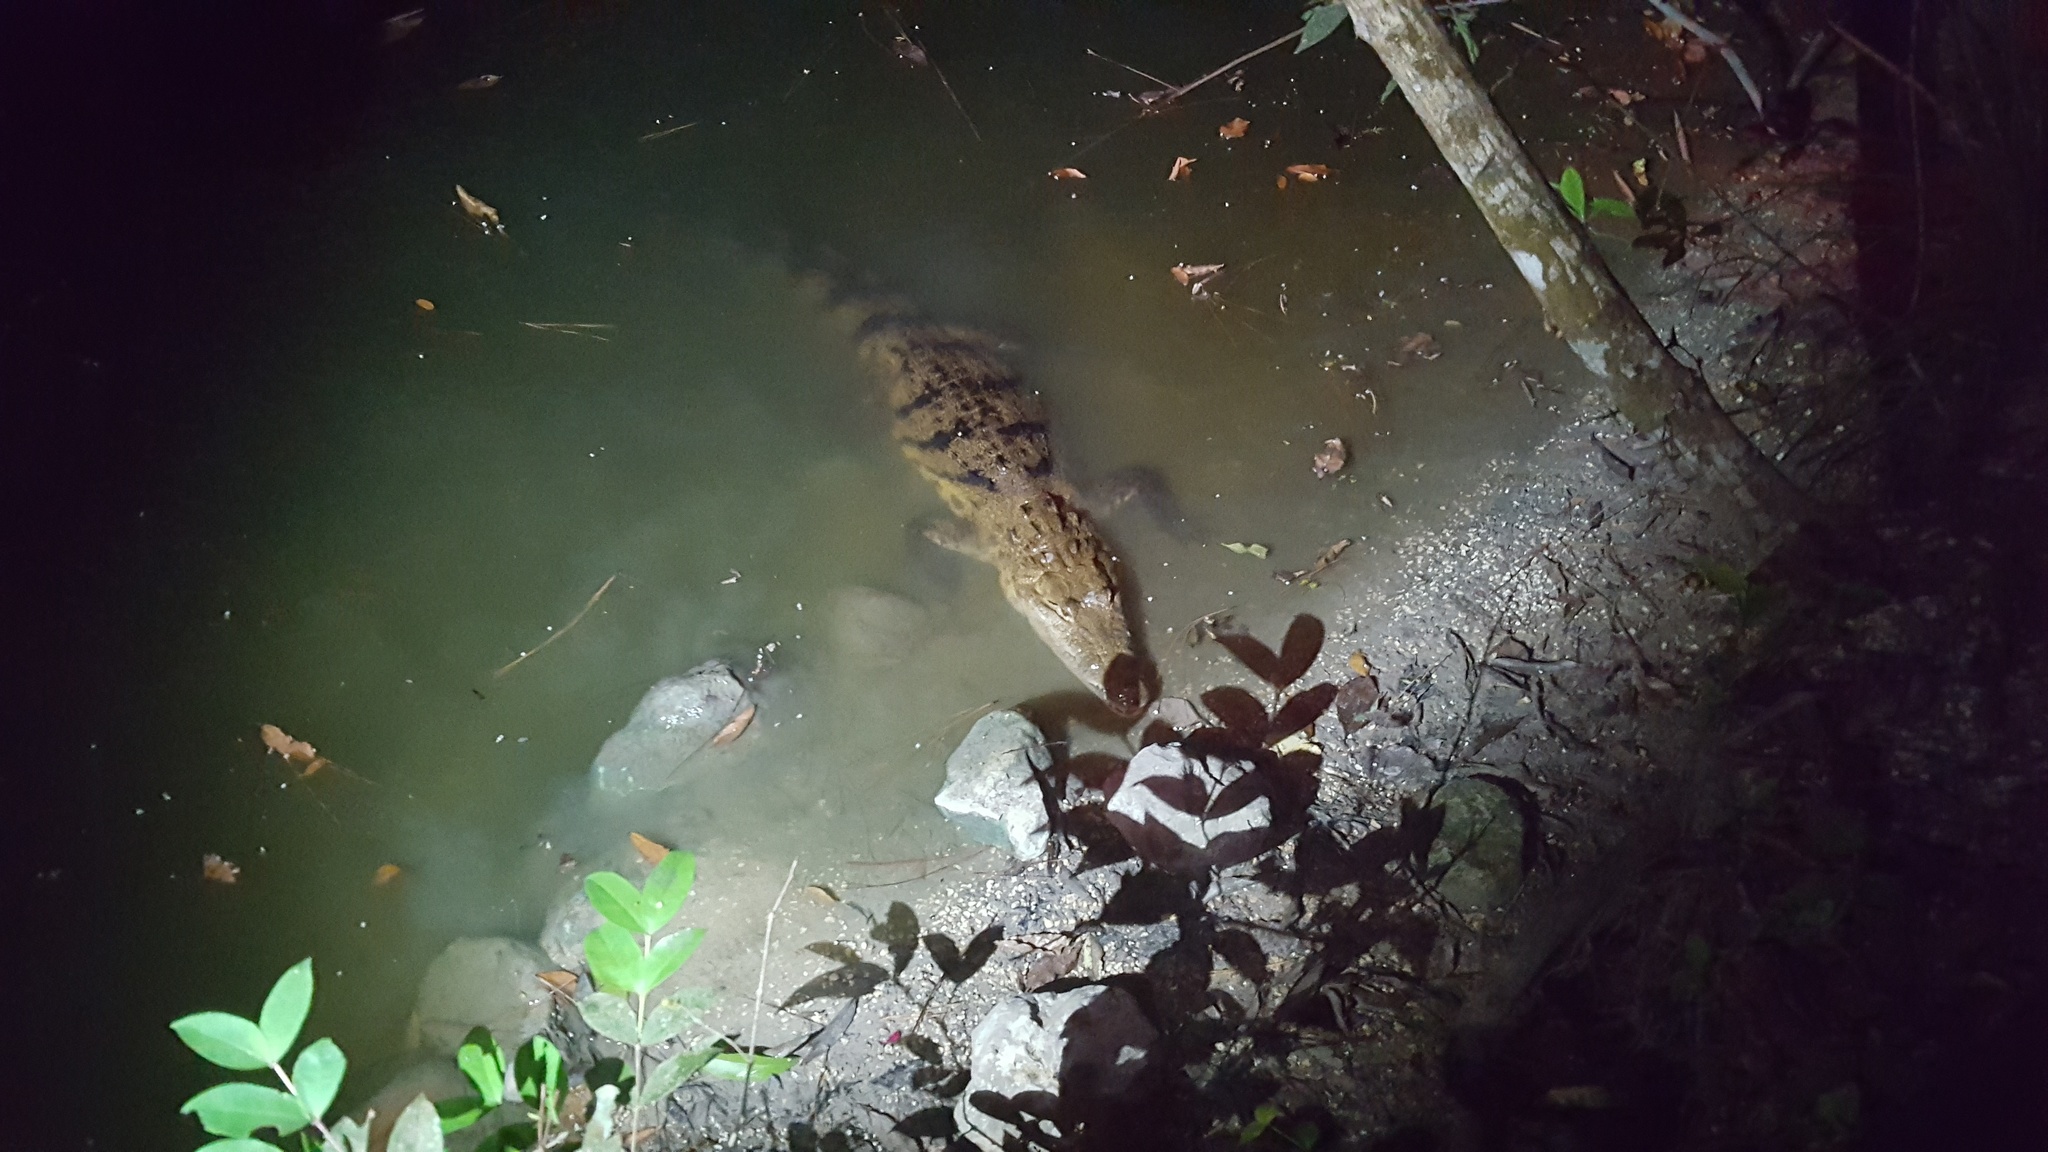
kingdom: Animalia
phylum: Chordata
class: Crocodylia
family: Crocodylidae
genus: Crocodylus
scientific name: Crocodylus moreletii
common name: Morelet's crocodile
